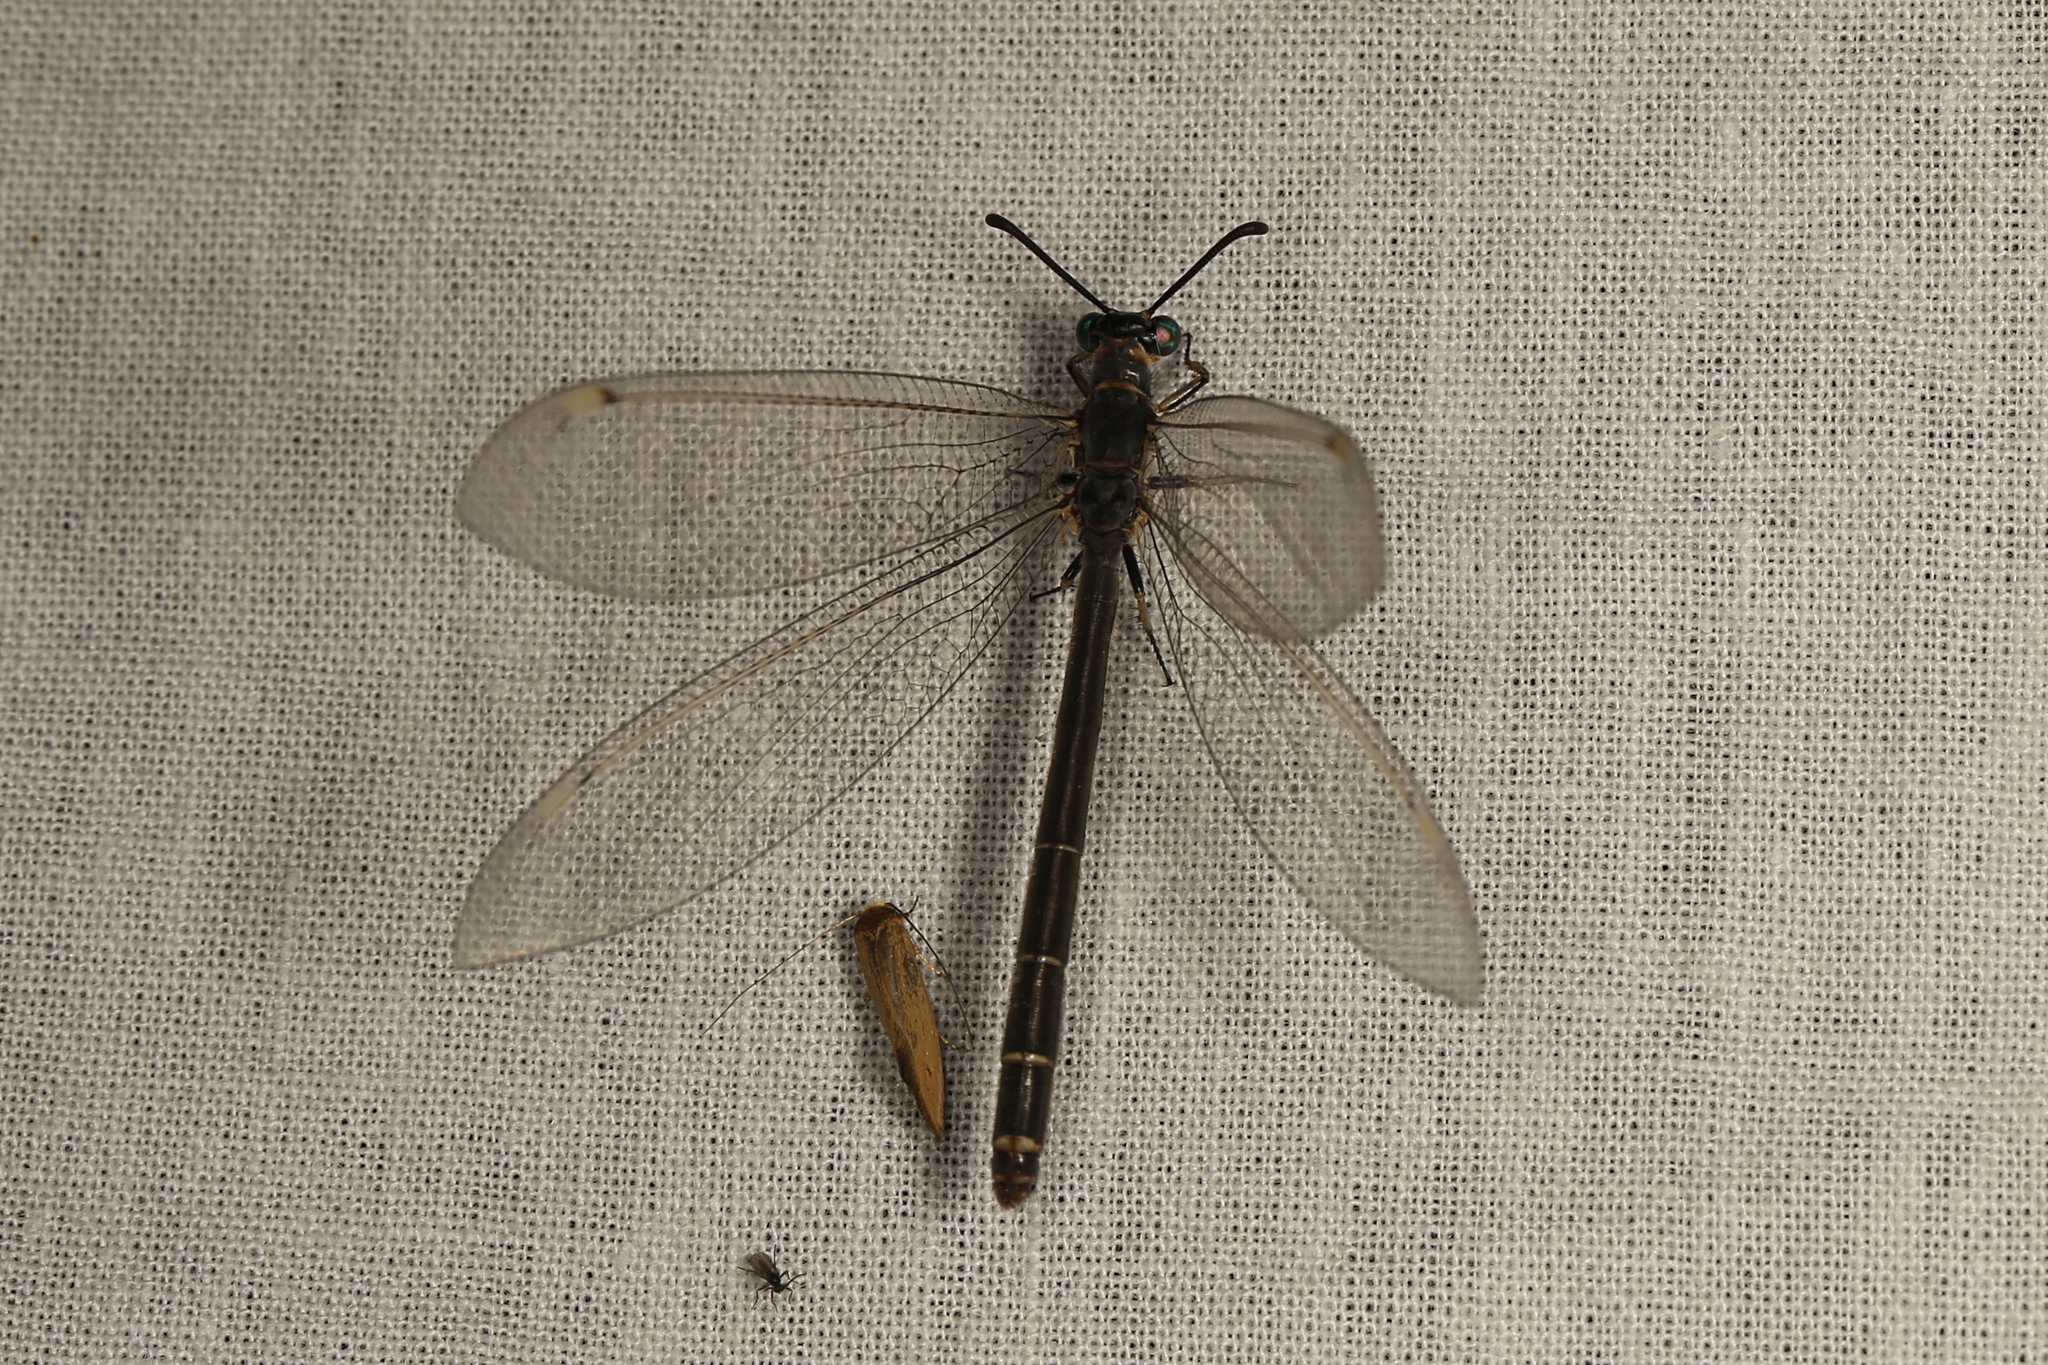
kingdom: Animalia
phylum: Arthropoda
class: Insecta
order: Neuroptera
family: Myrmeleontidae
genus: Myrmeleon
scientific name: Myrmeleon acer
